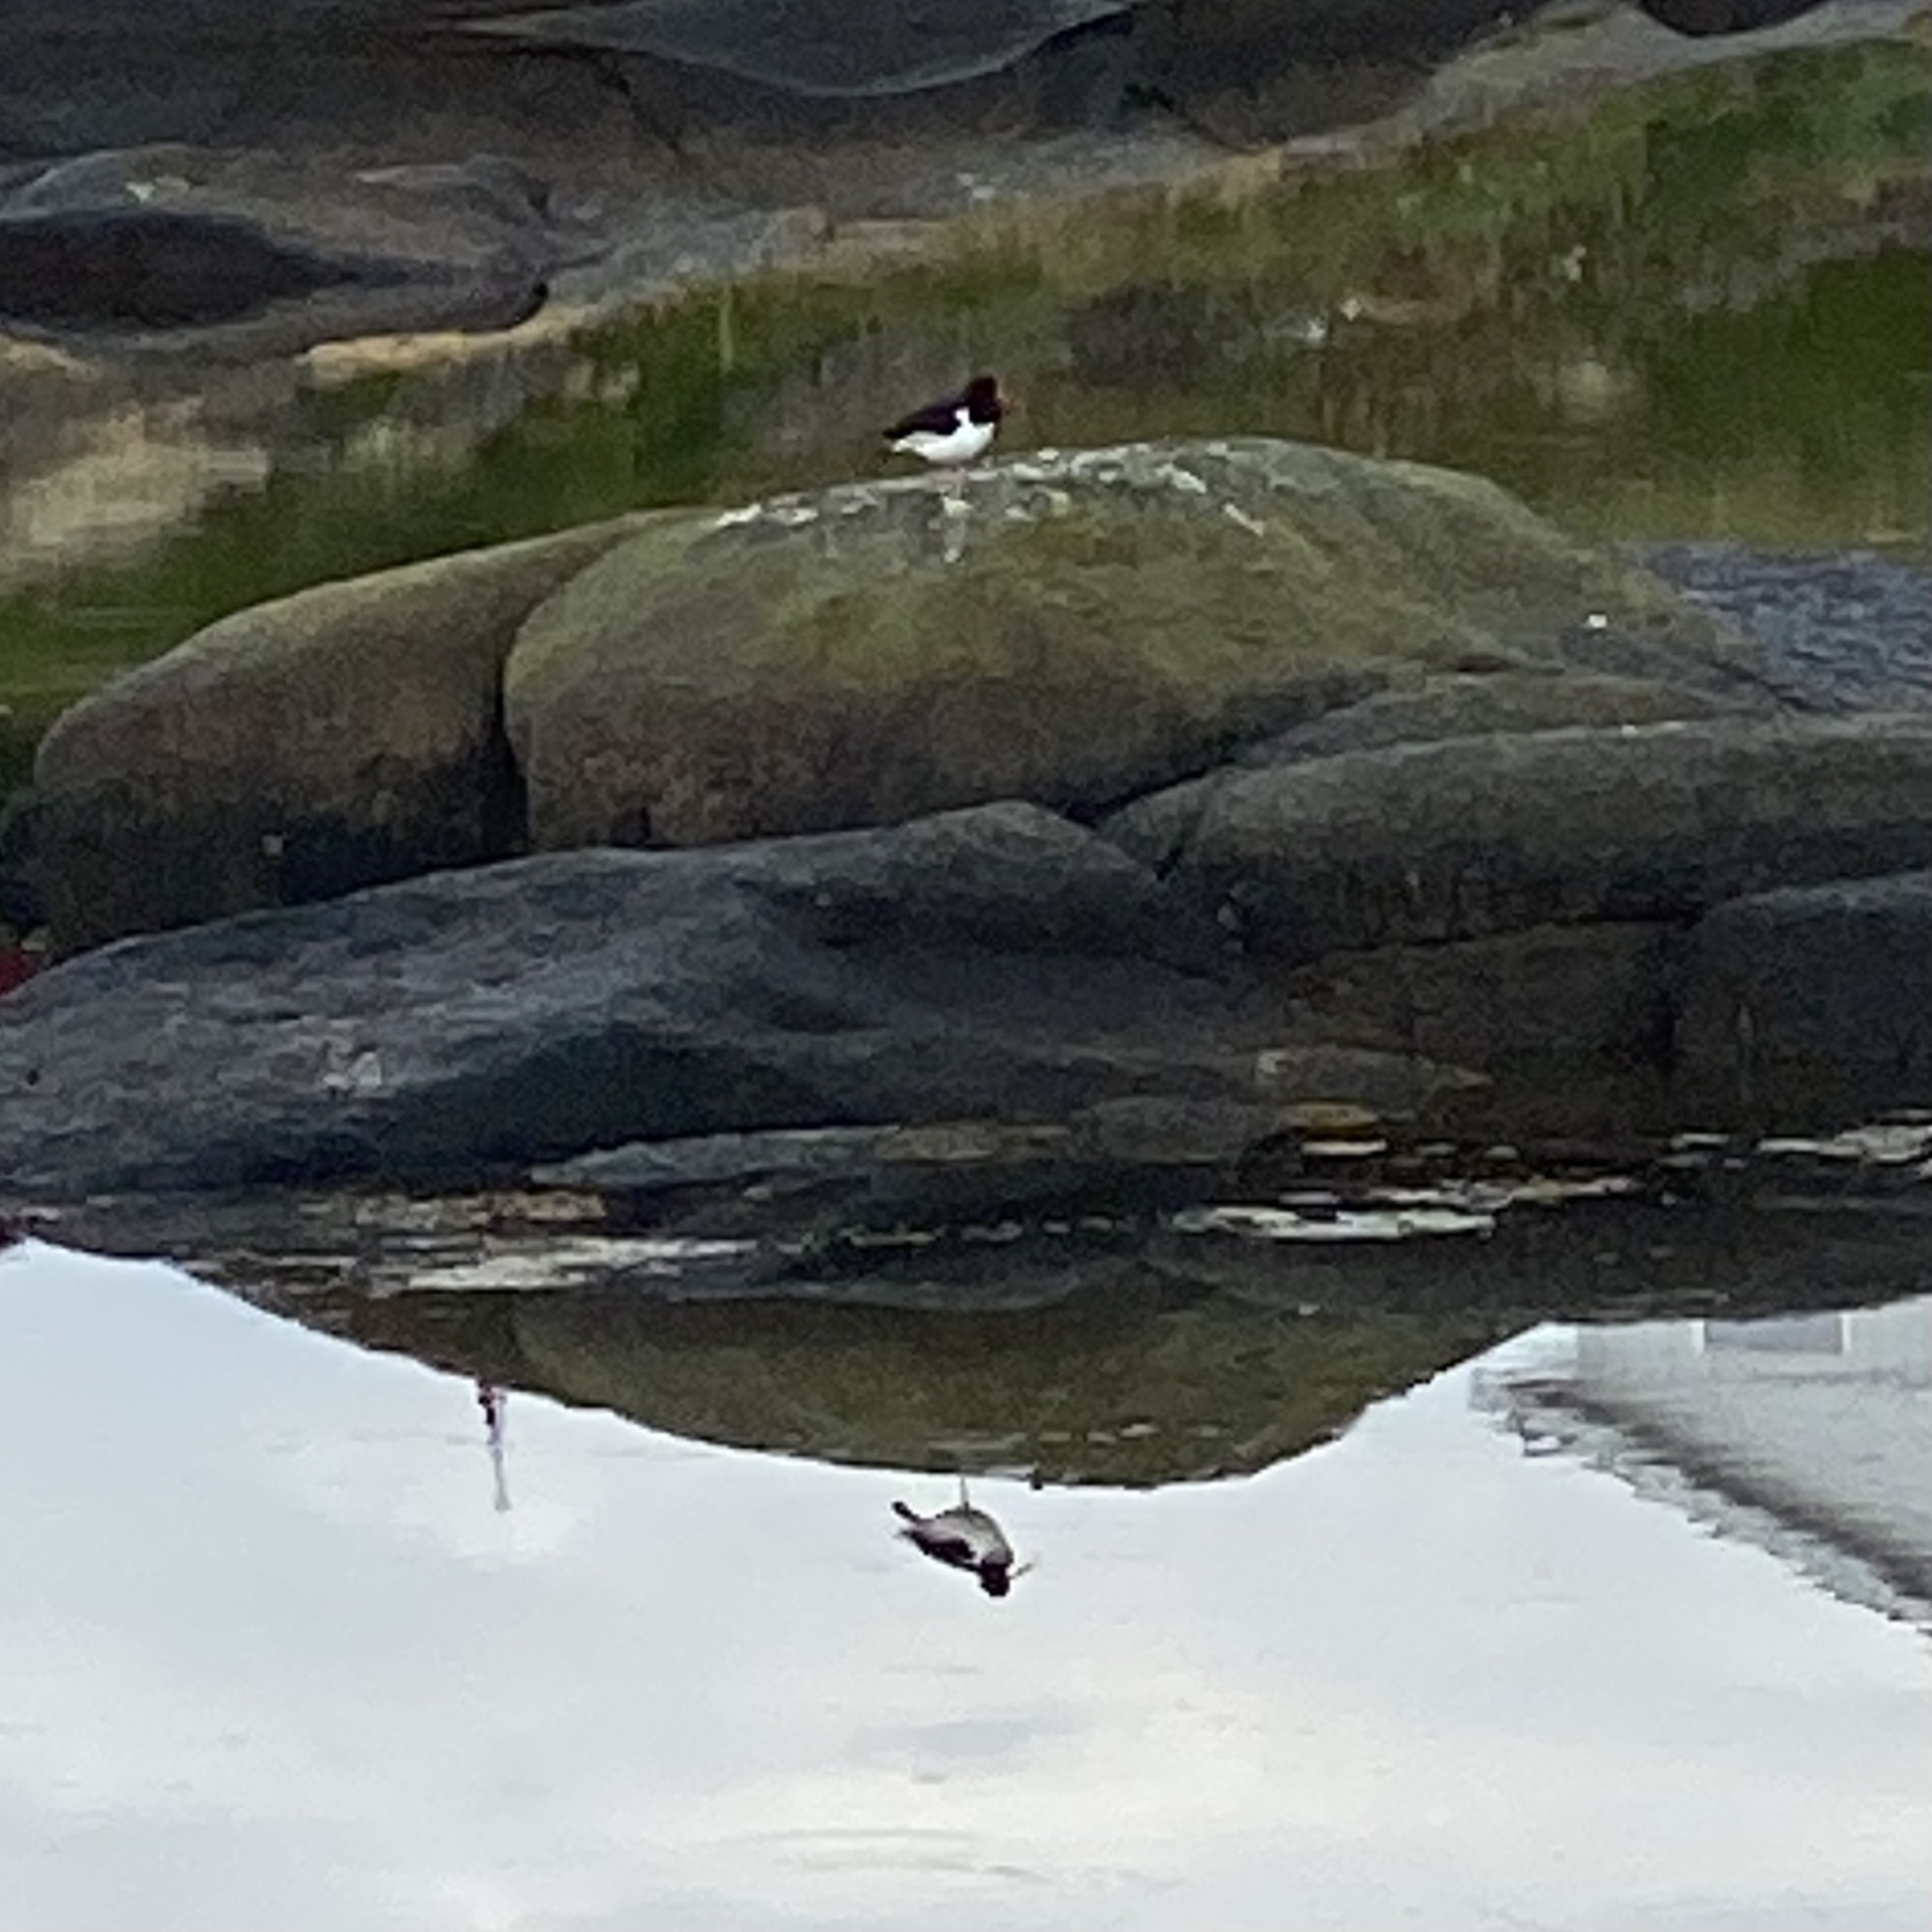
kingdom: Animalia
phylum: Chordata
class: Aves
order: Charadriiformes
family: Haematopodidae
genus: Haematopus
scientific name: Haematopus ostralegus
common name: Eurasian oystercatcher
